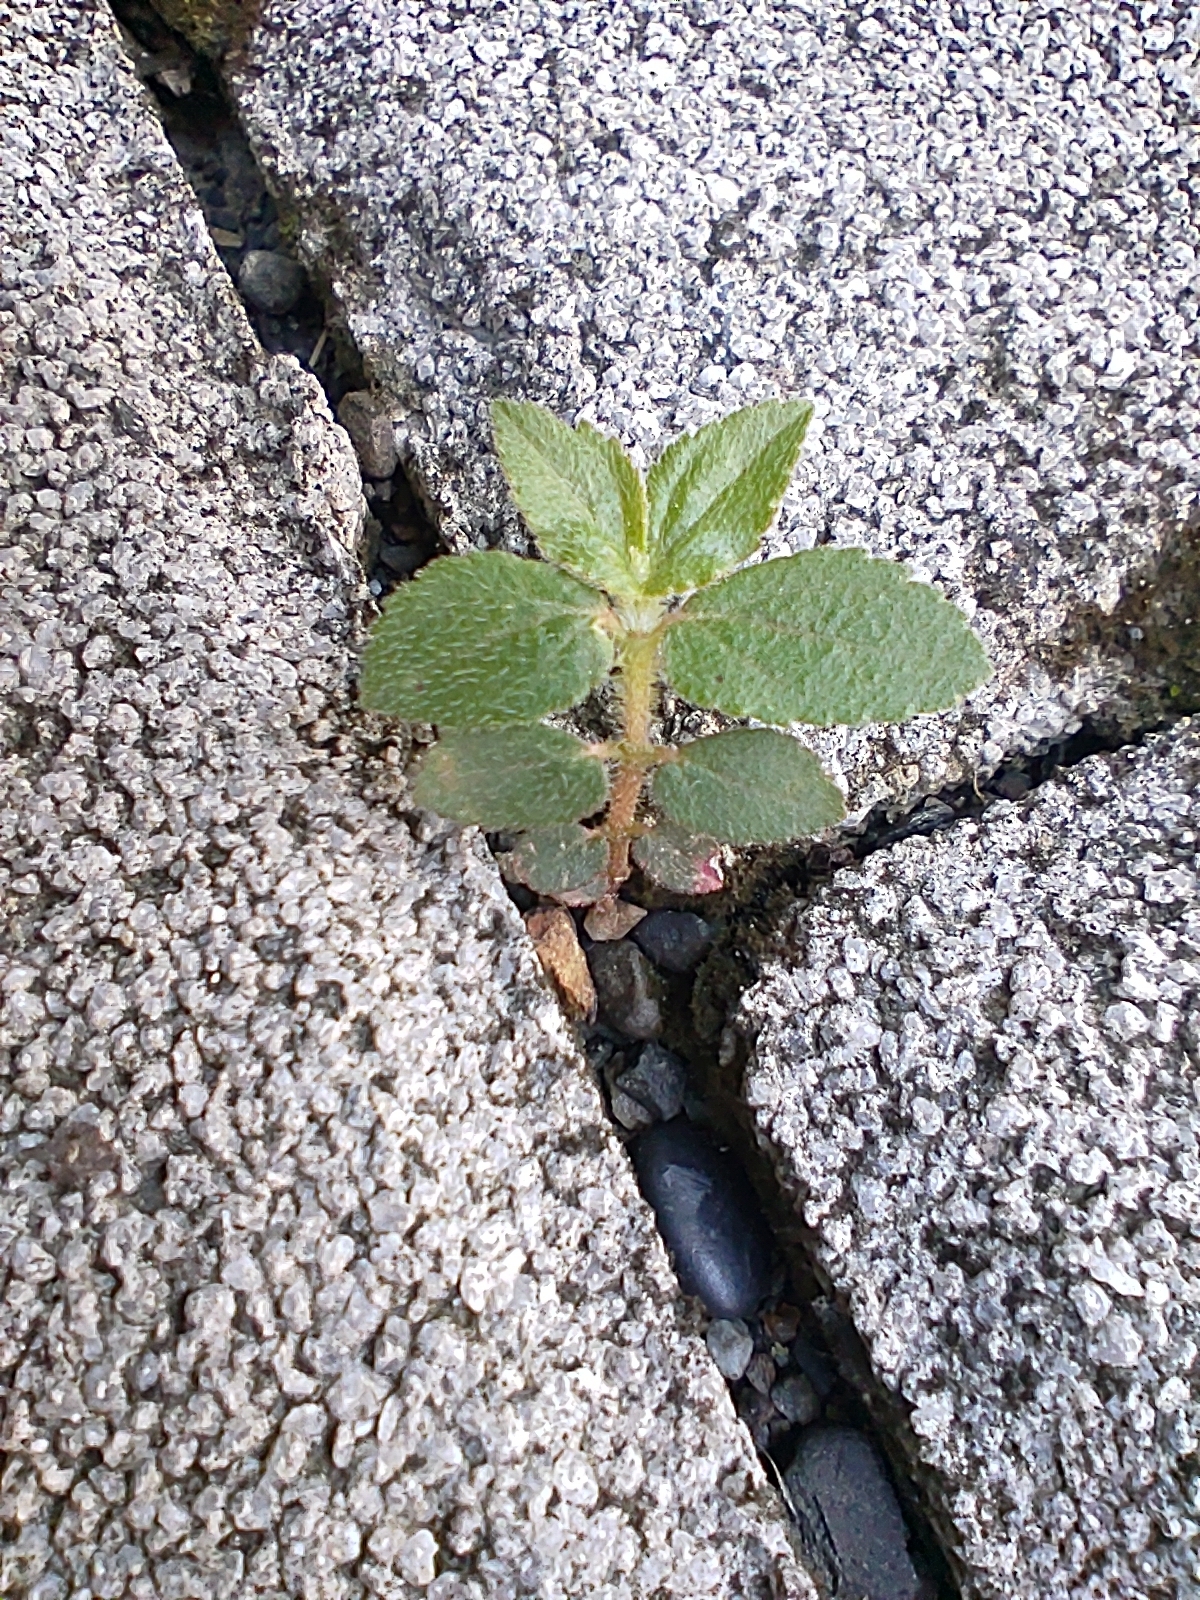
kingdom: Plantae
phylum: Tracheophyta
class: Magnoliopsida
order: Malpighiales
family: Euphorbiaceae
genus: Euphorbia
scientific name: Euphorbia hirta
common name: Pillpod sandmat
